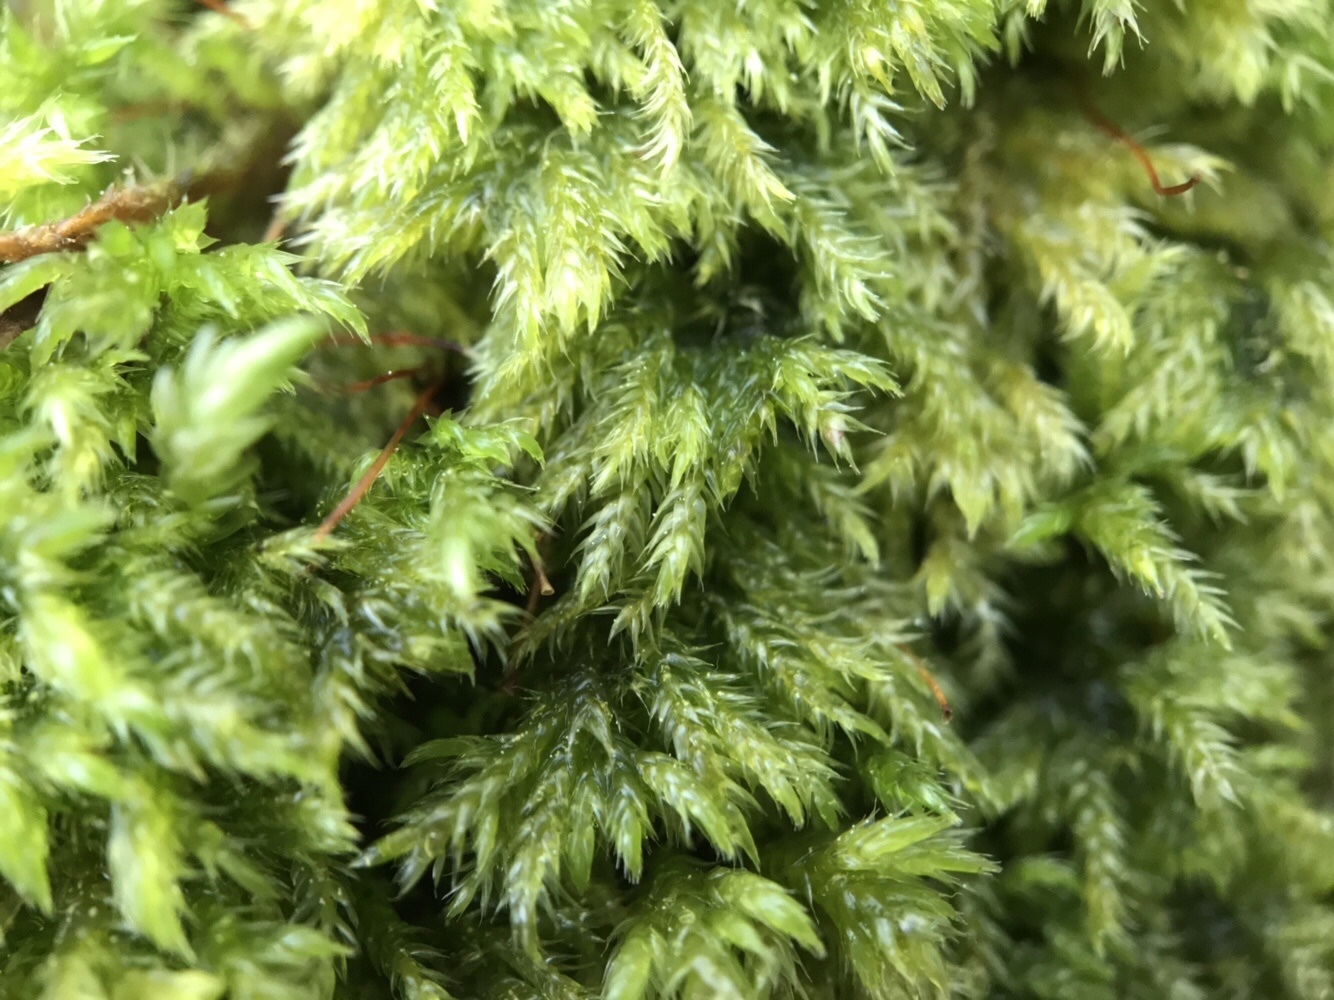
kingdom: Plantae
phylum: Bryophyta
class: Bryopsida
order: Hypnales
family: Lembophyllaceae
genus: Pseudisothecium
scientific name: Pseudisothecium myosuroides
